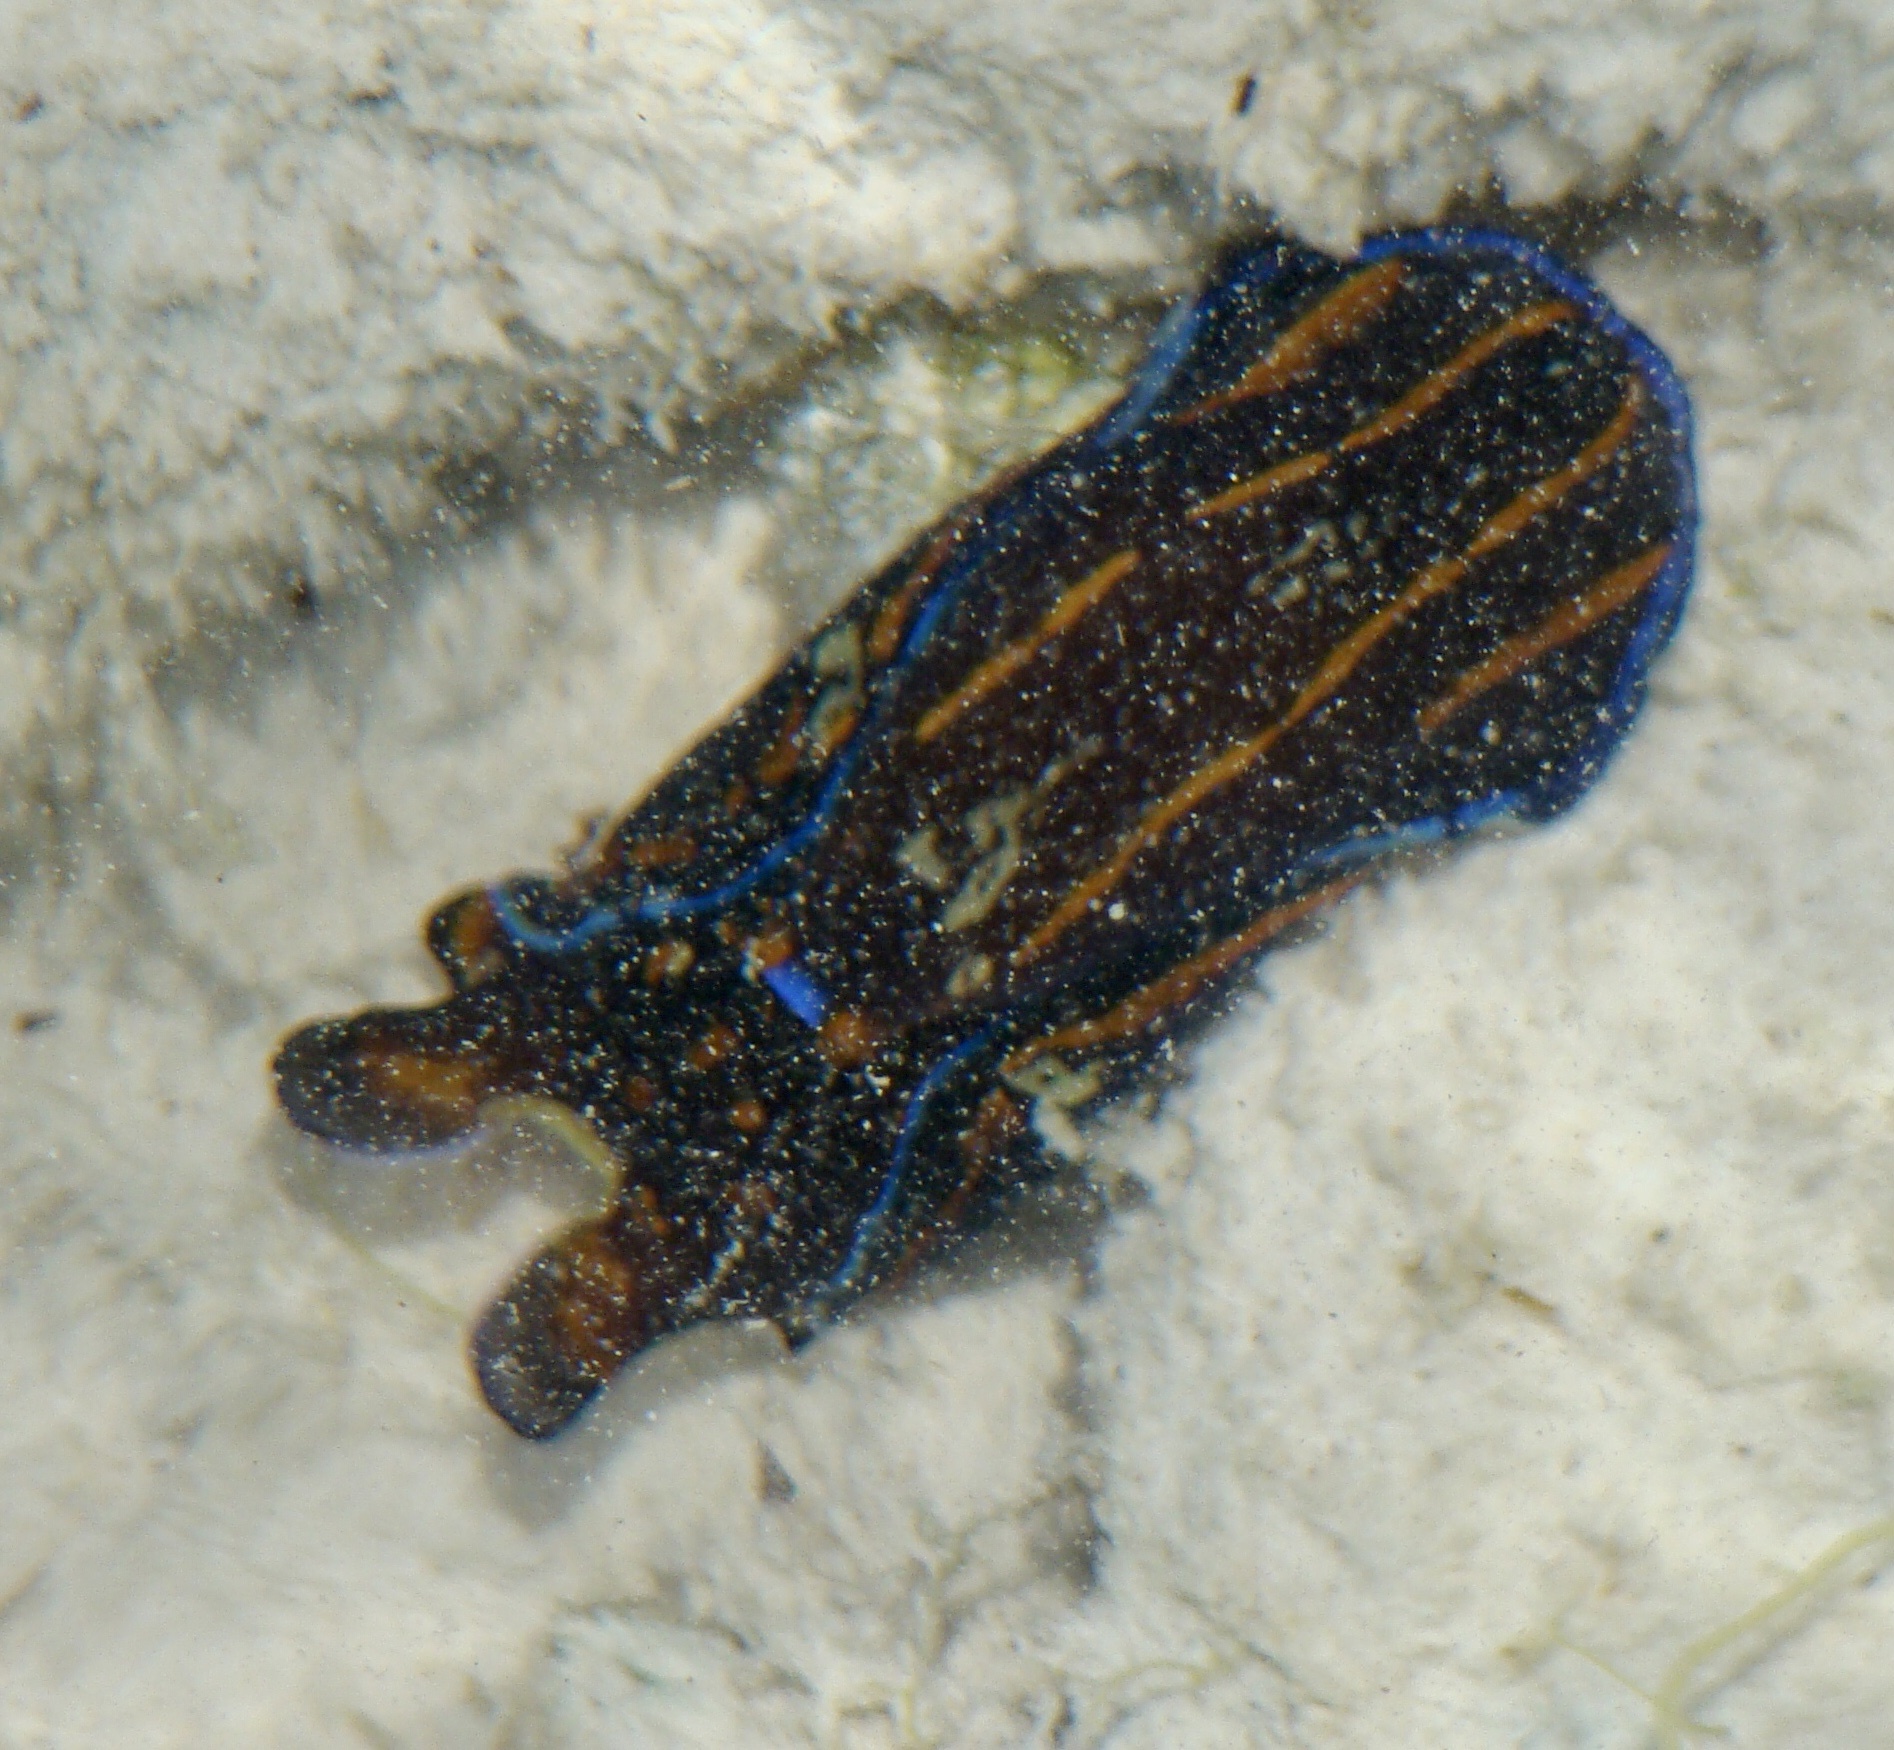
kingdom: Animalia
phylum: Mollusca
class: Gastropoda
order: Cephalaspidea
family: Aglajidae
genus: Philinopsis
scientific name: Philinopsis speciosa
